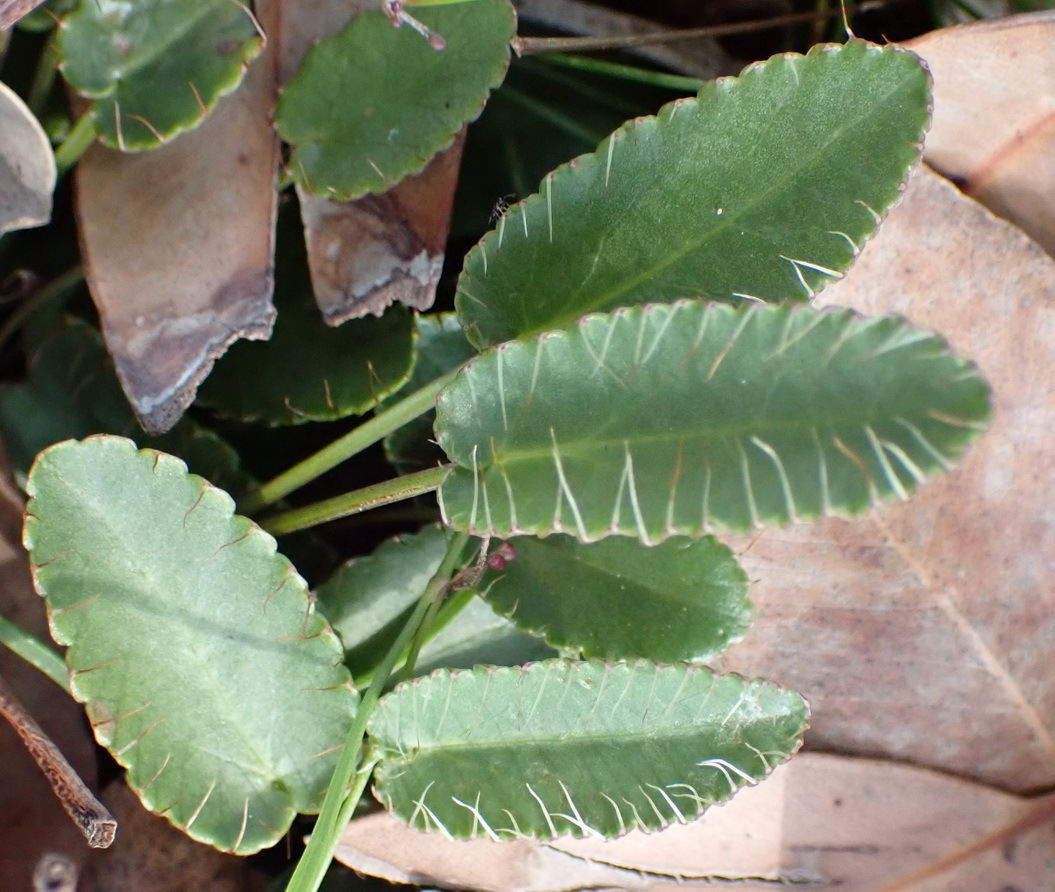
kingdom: Plantae
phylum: Tracheophyta
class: Magnoliopsida
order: Apiales
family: Apiaceae
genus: Alepidea
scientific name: Alepidea capensis
